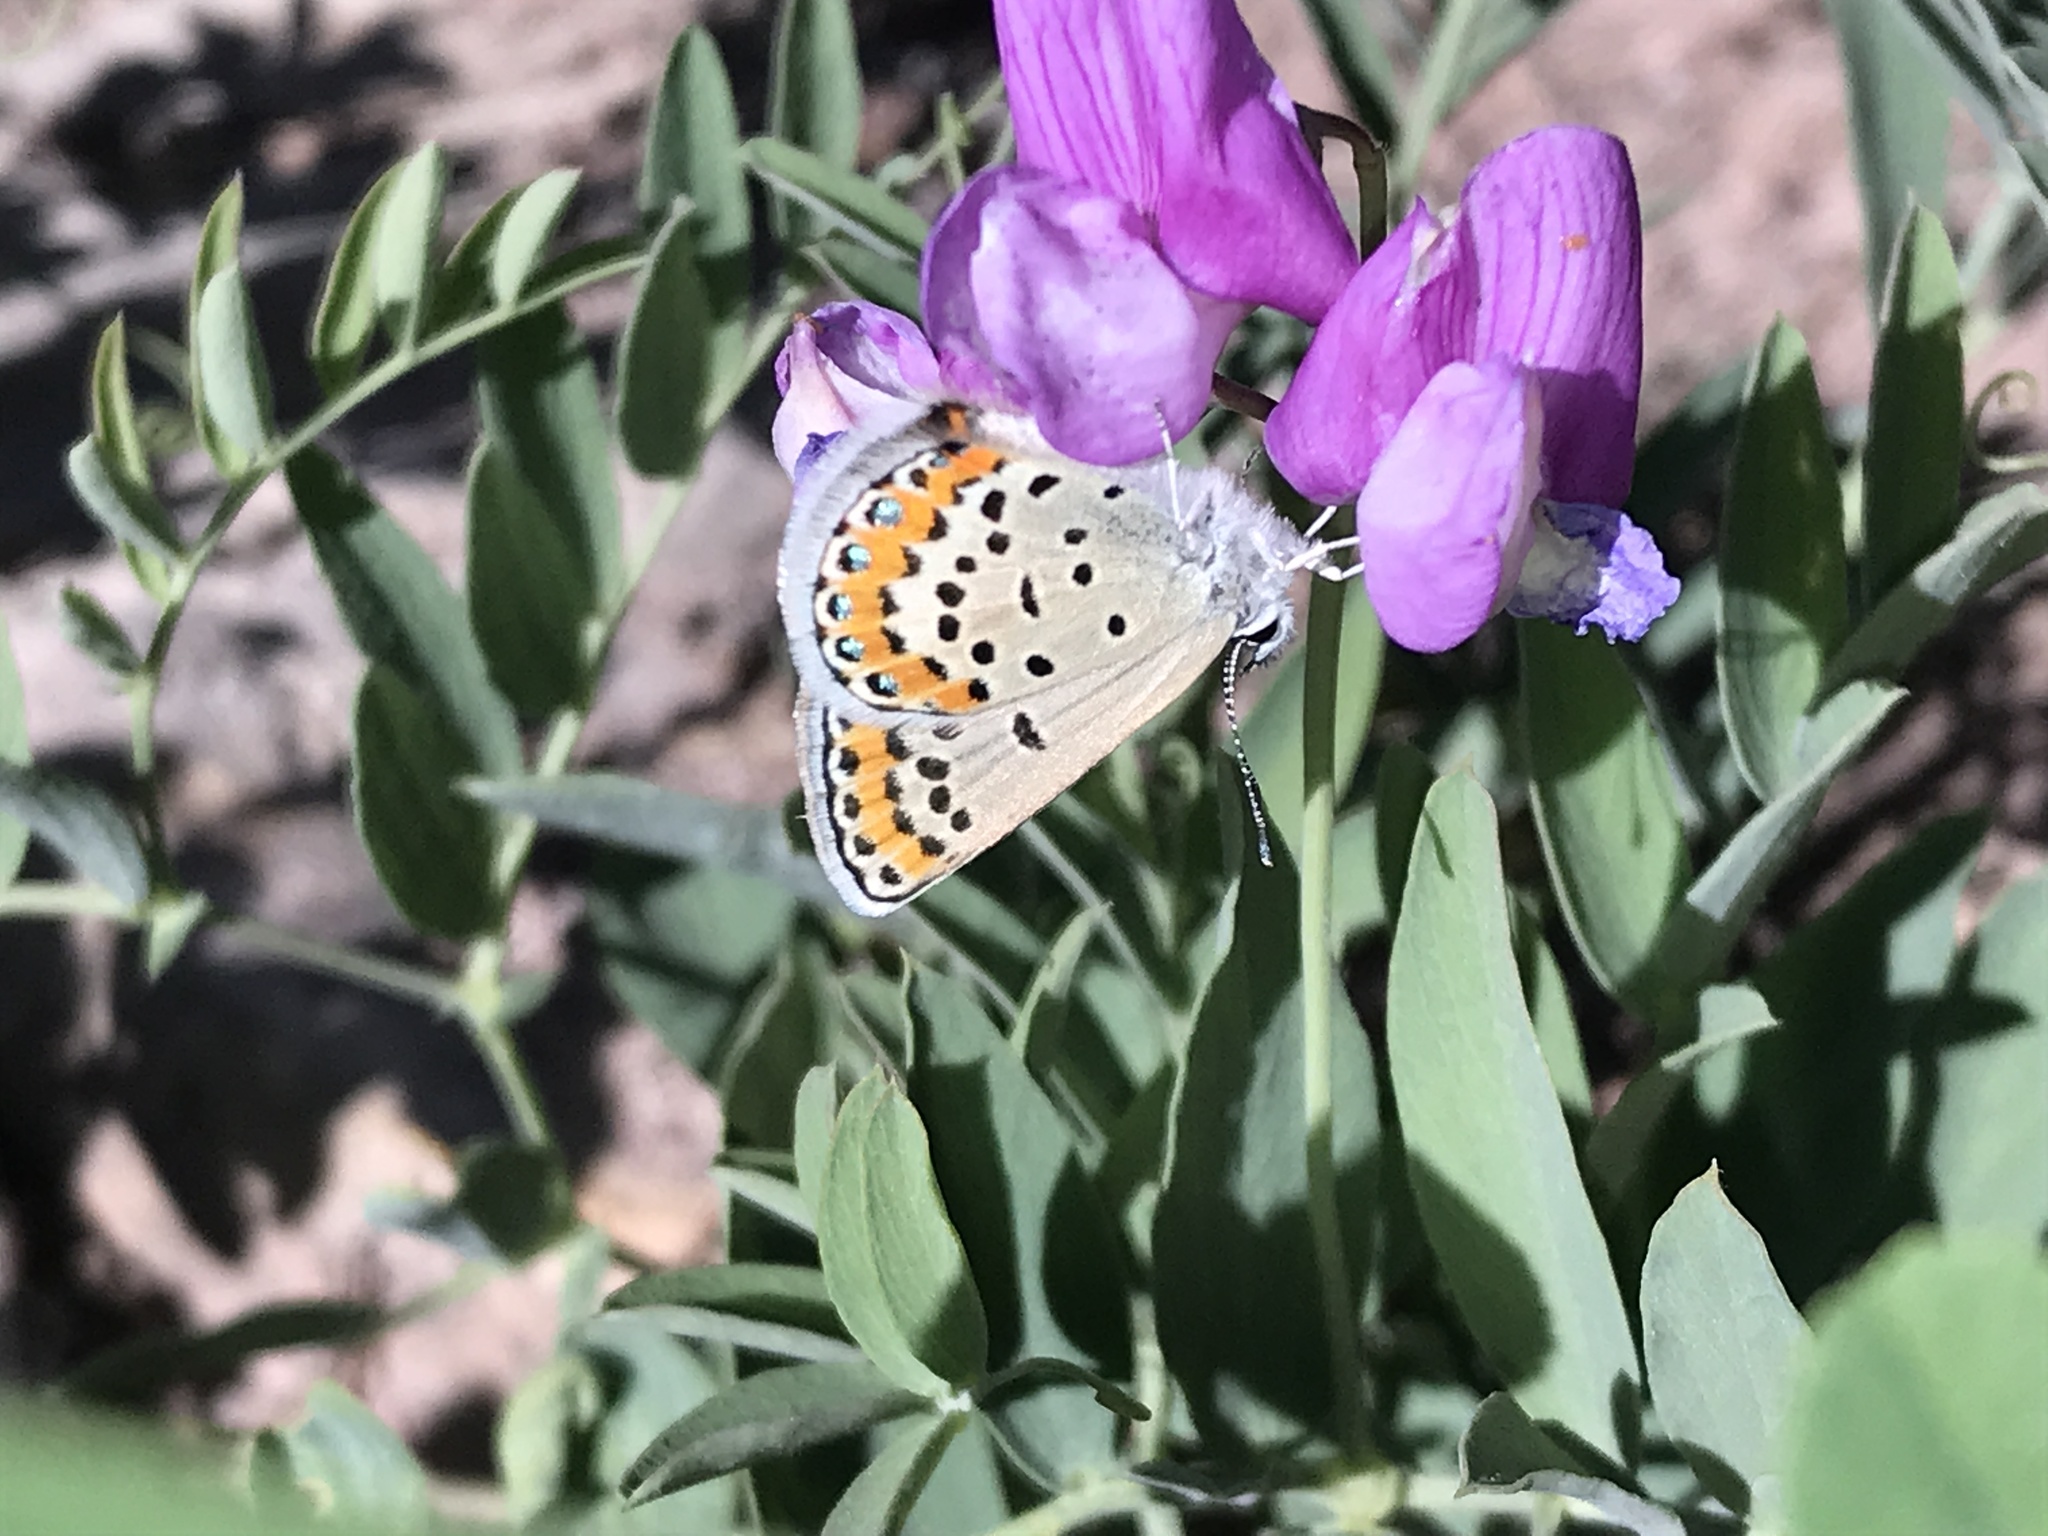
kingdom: Animalia
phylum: Arthropoda
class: Insecta
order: Lepidoptera
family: Lycaenidae
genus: Lycaeides
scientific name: Lycaeides melissa
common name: Melissa blue
